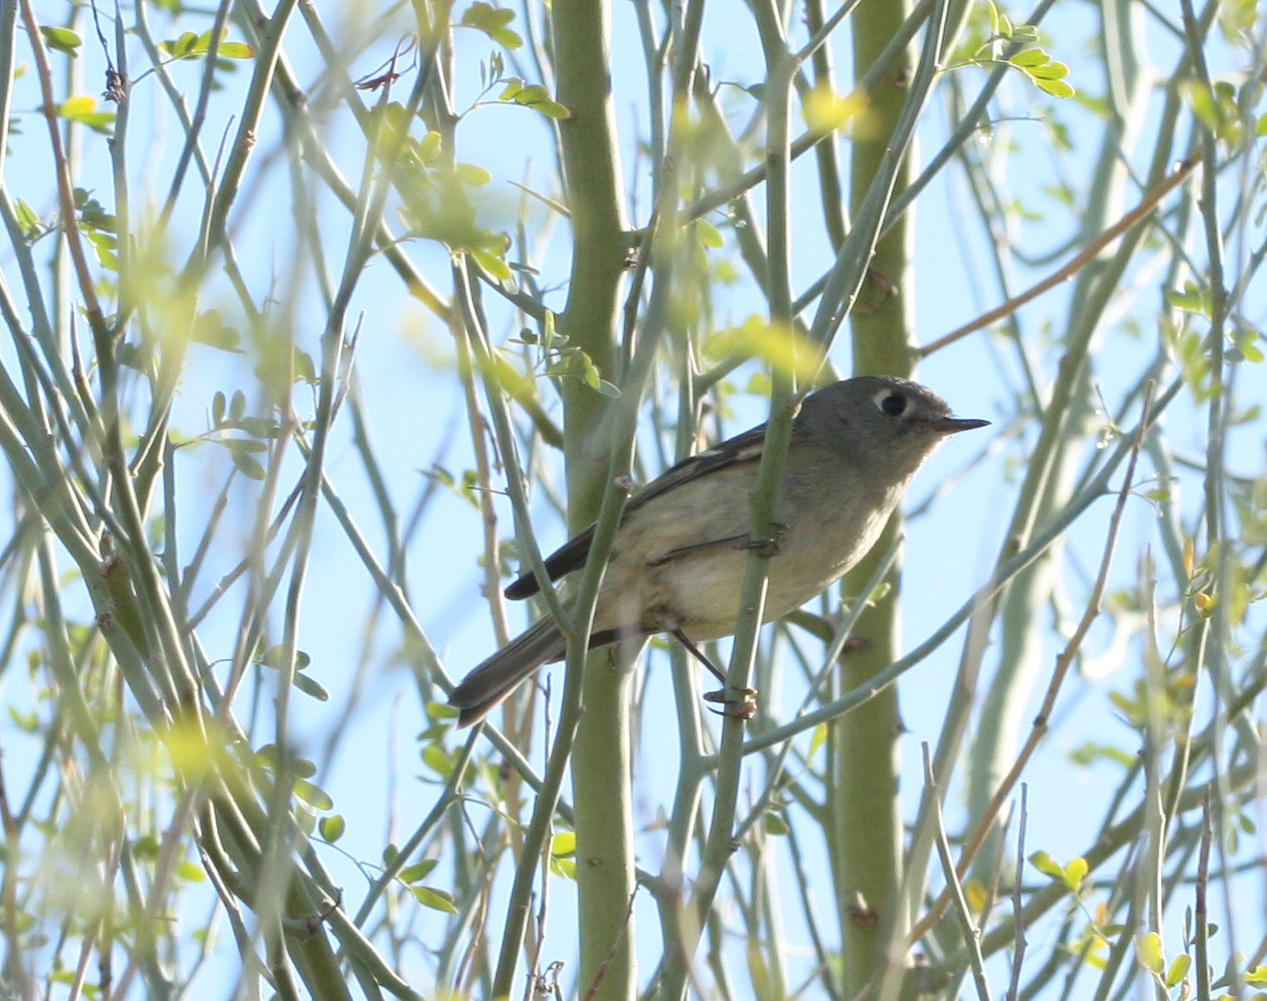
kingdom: Animalia
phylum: Chordata
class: Aves
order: Passeriformes
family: Regulidae
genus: Regulus
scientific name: Regulus calendula
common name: Ruby-crowned kinglet
